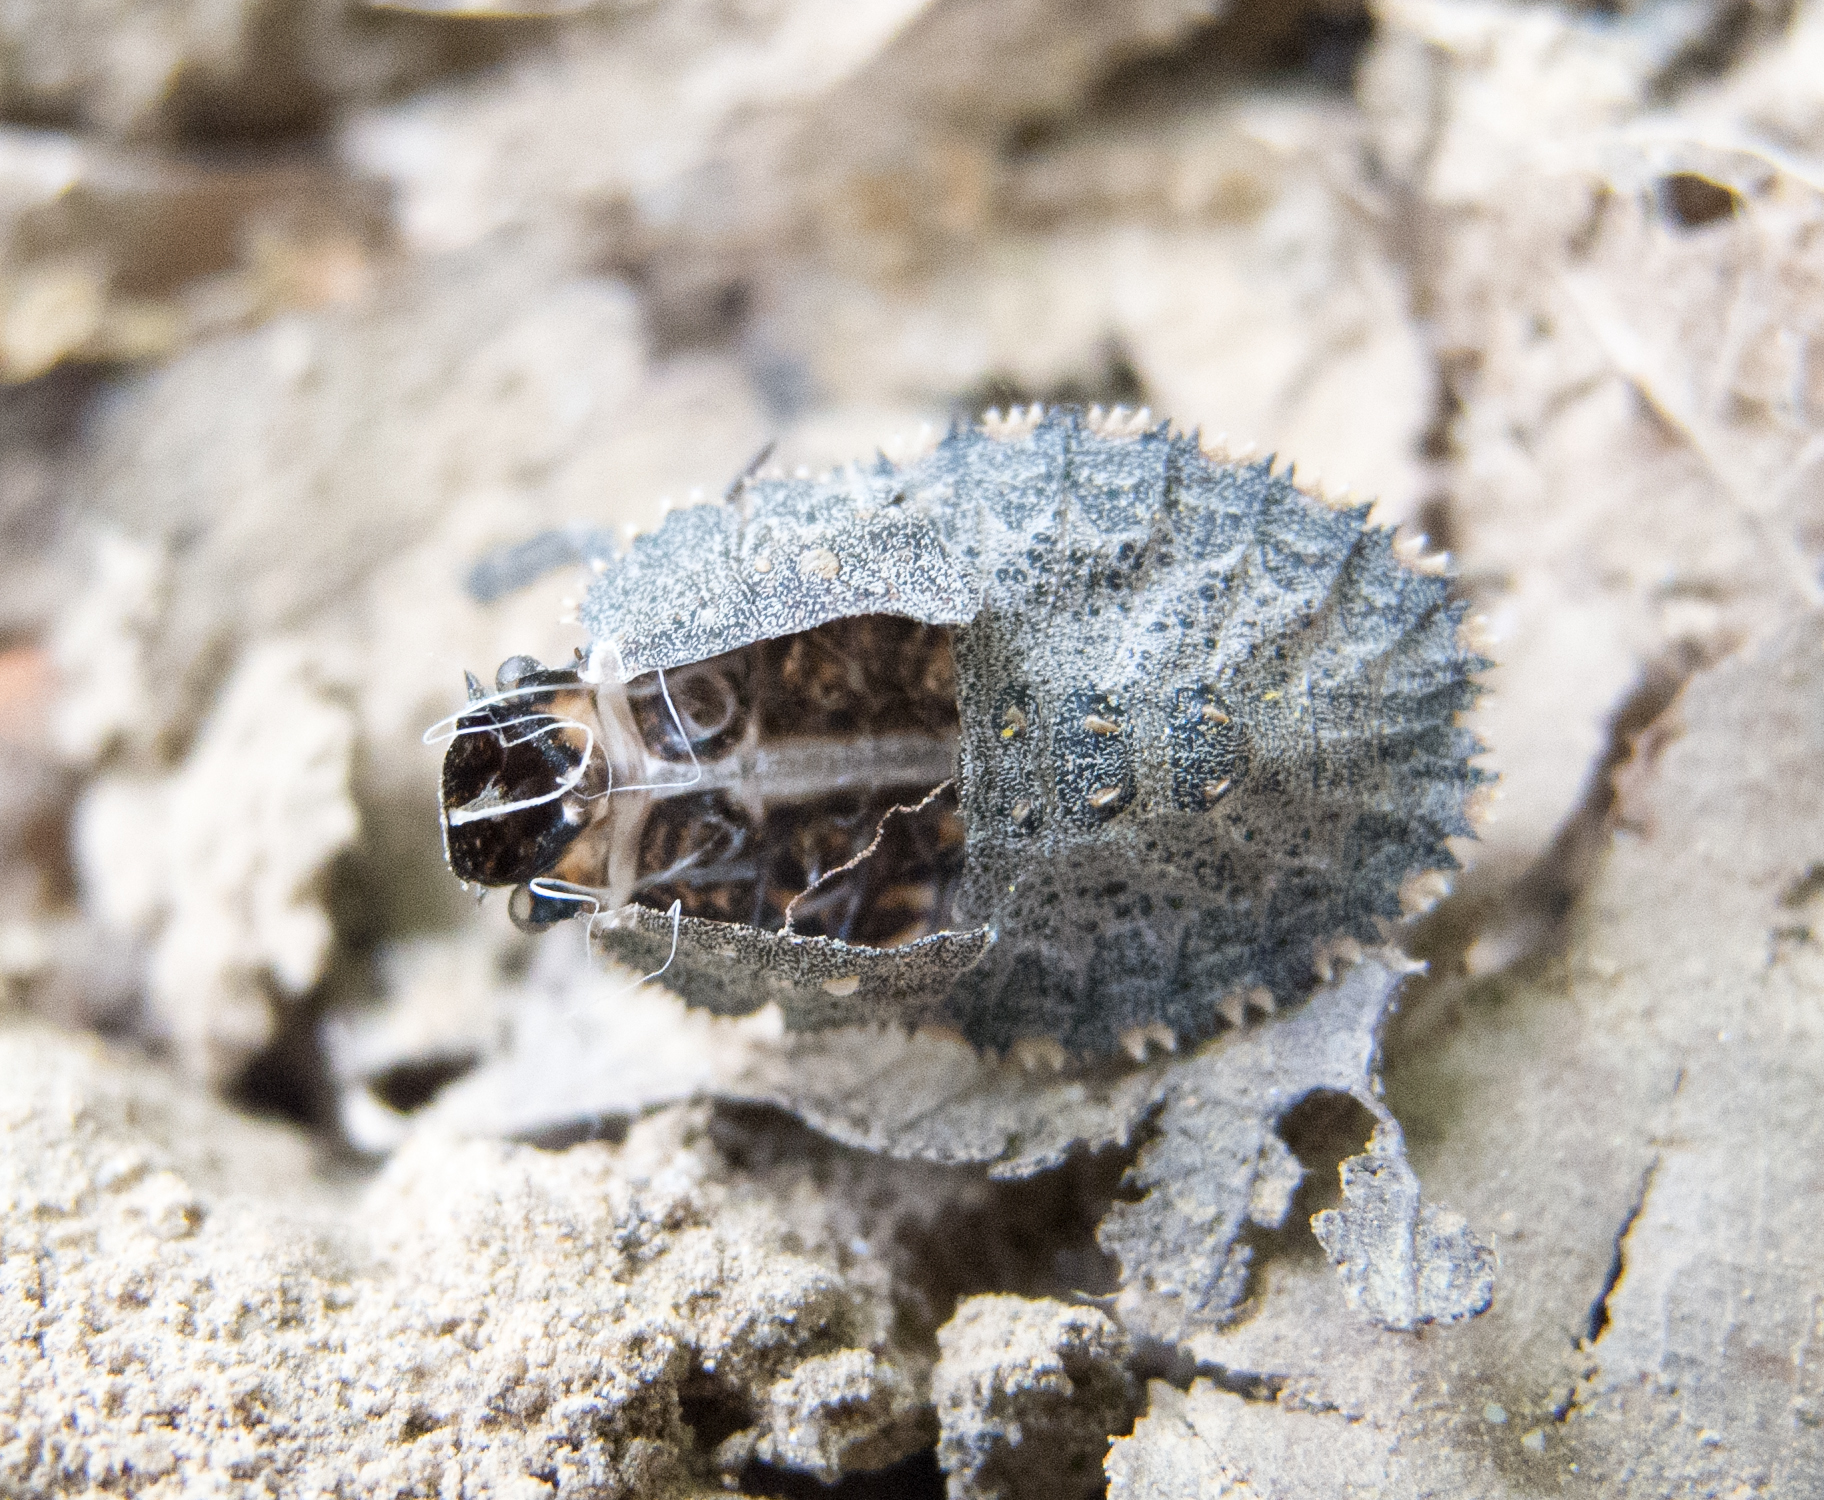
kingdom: Animalia
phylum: Arthropoda
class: Insecta
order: Hemiptera
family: Pentatomidae
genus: Mustha
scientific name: Mustha spinosula
